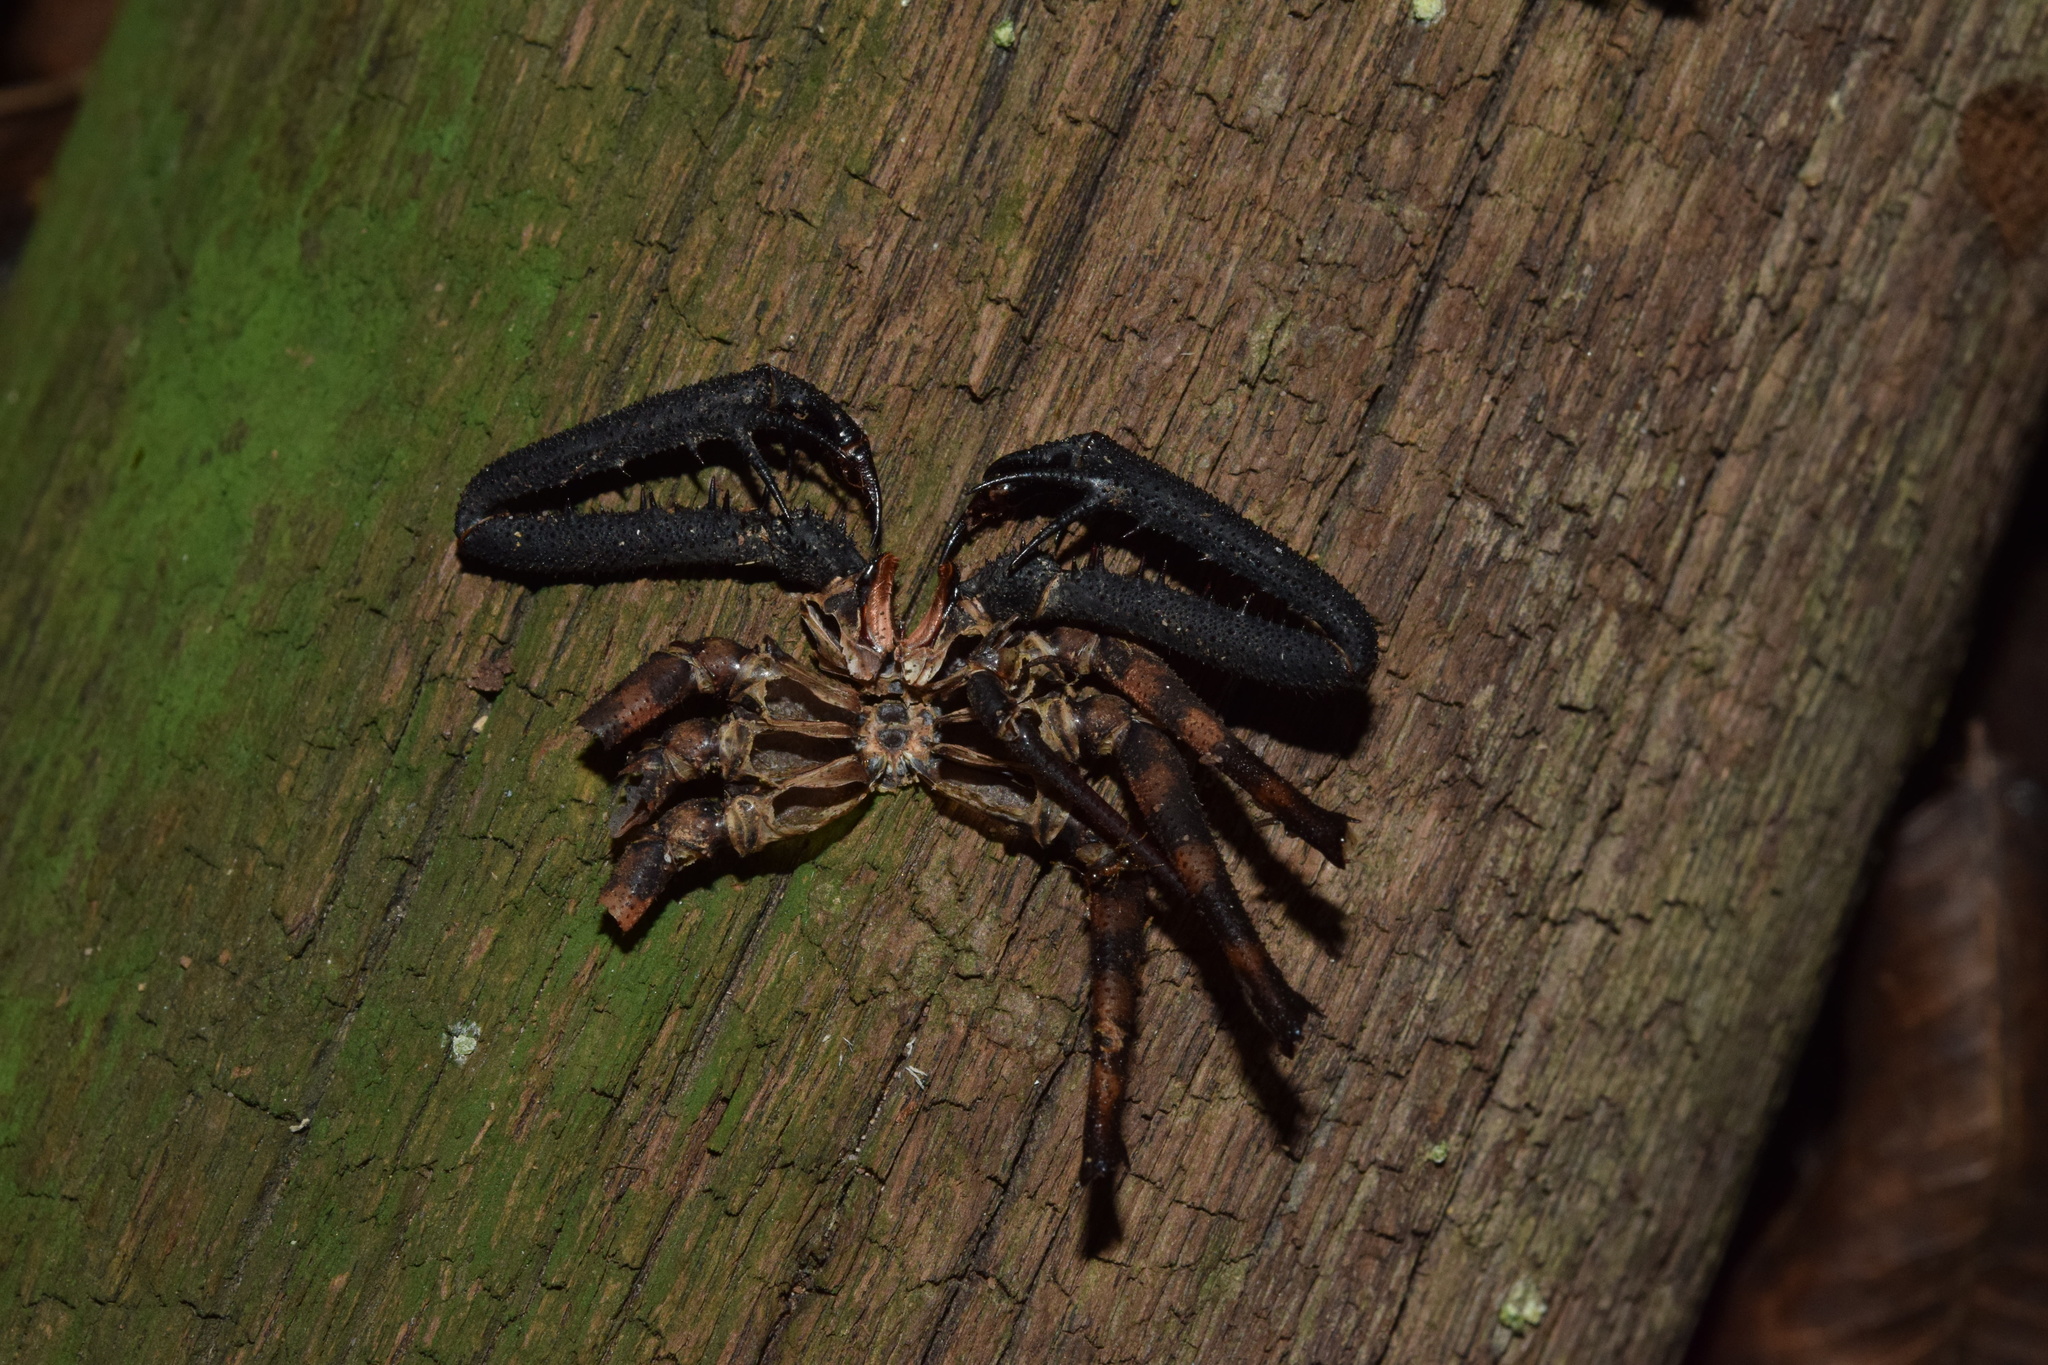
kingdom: Animalia
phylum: Arthropoda
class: Arachnida
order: Amblypygi
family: Phrynichidae
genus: Damon
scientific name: Damon annulatipes
